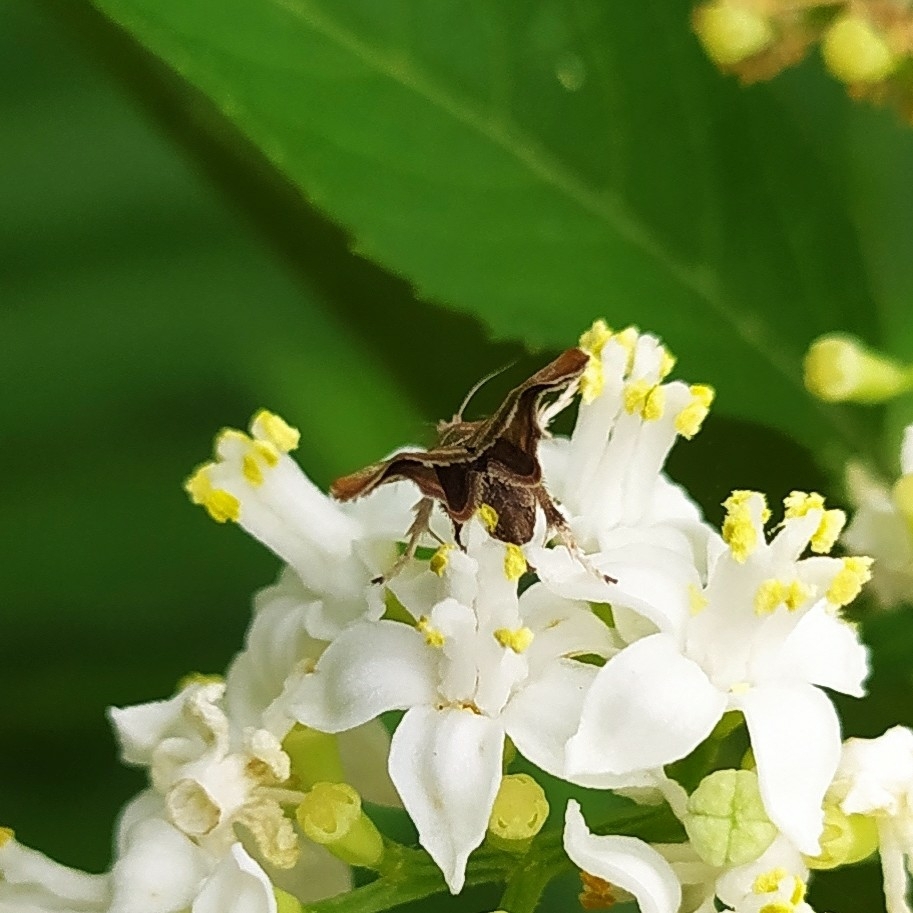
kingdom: Animalia
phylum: Arthropoda
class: Insecta
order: Lepidoptera
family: Choreutidae
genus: Anthophila
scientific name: Anthophila nemorana
